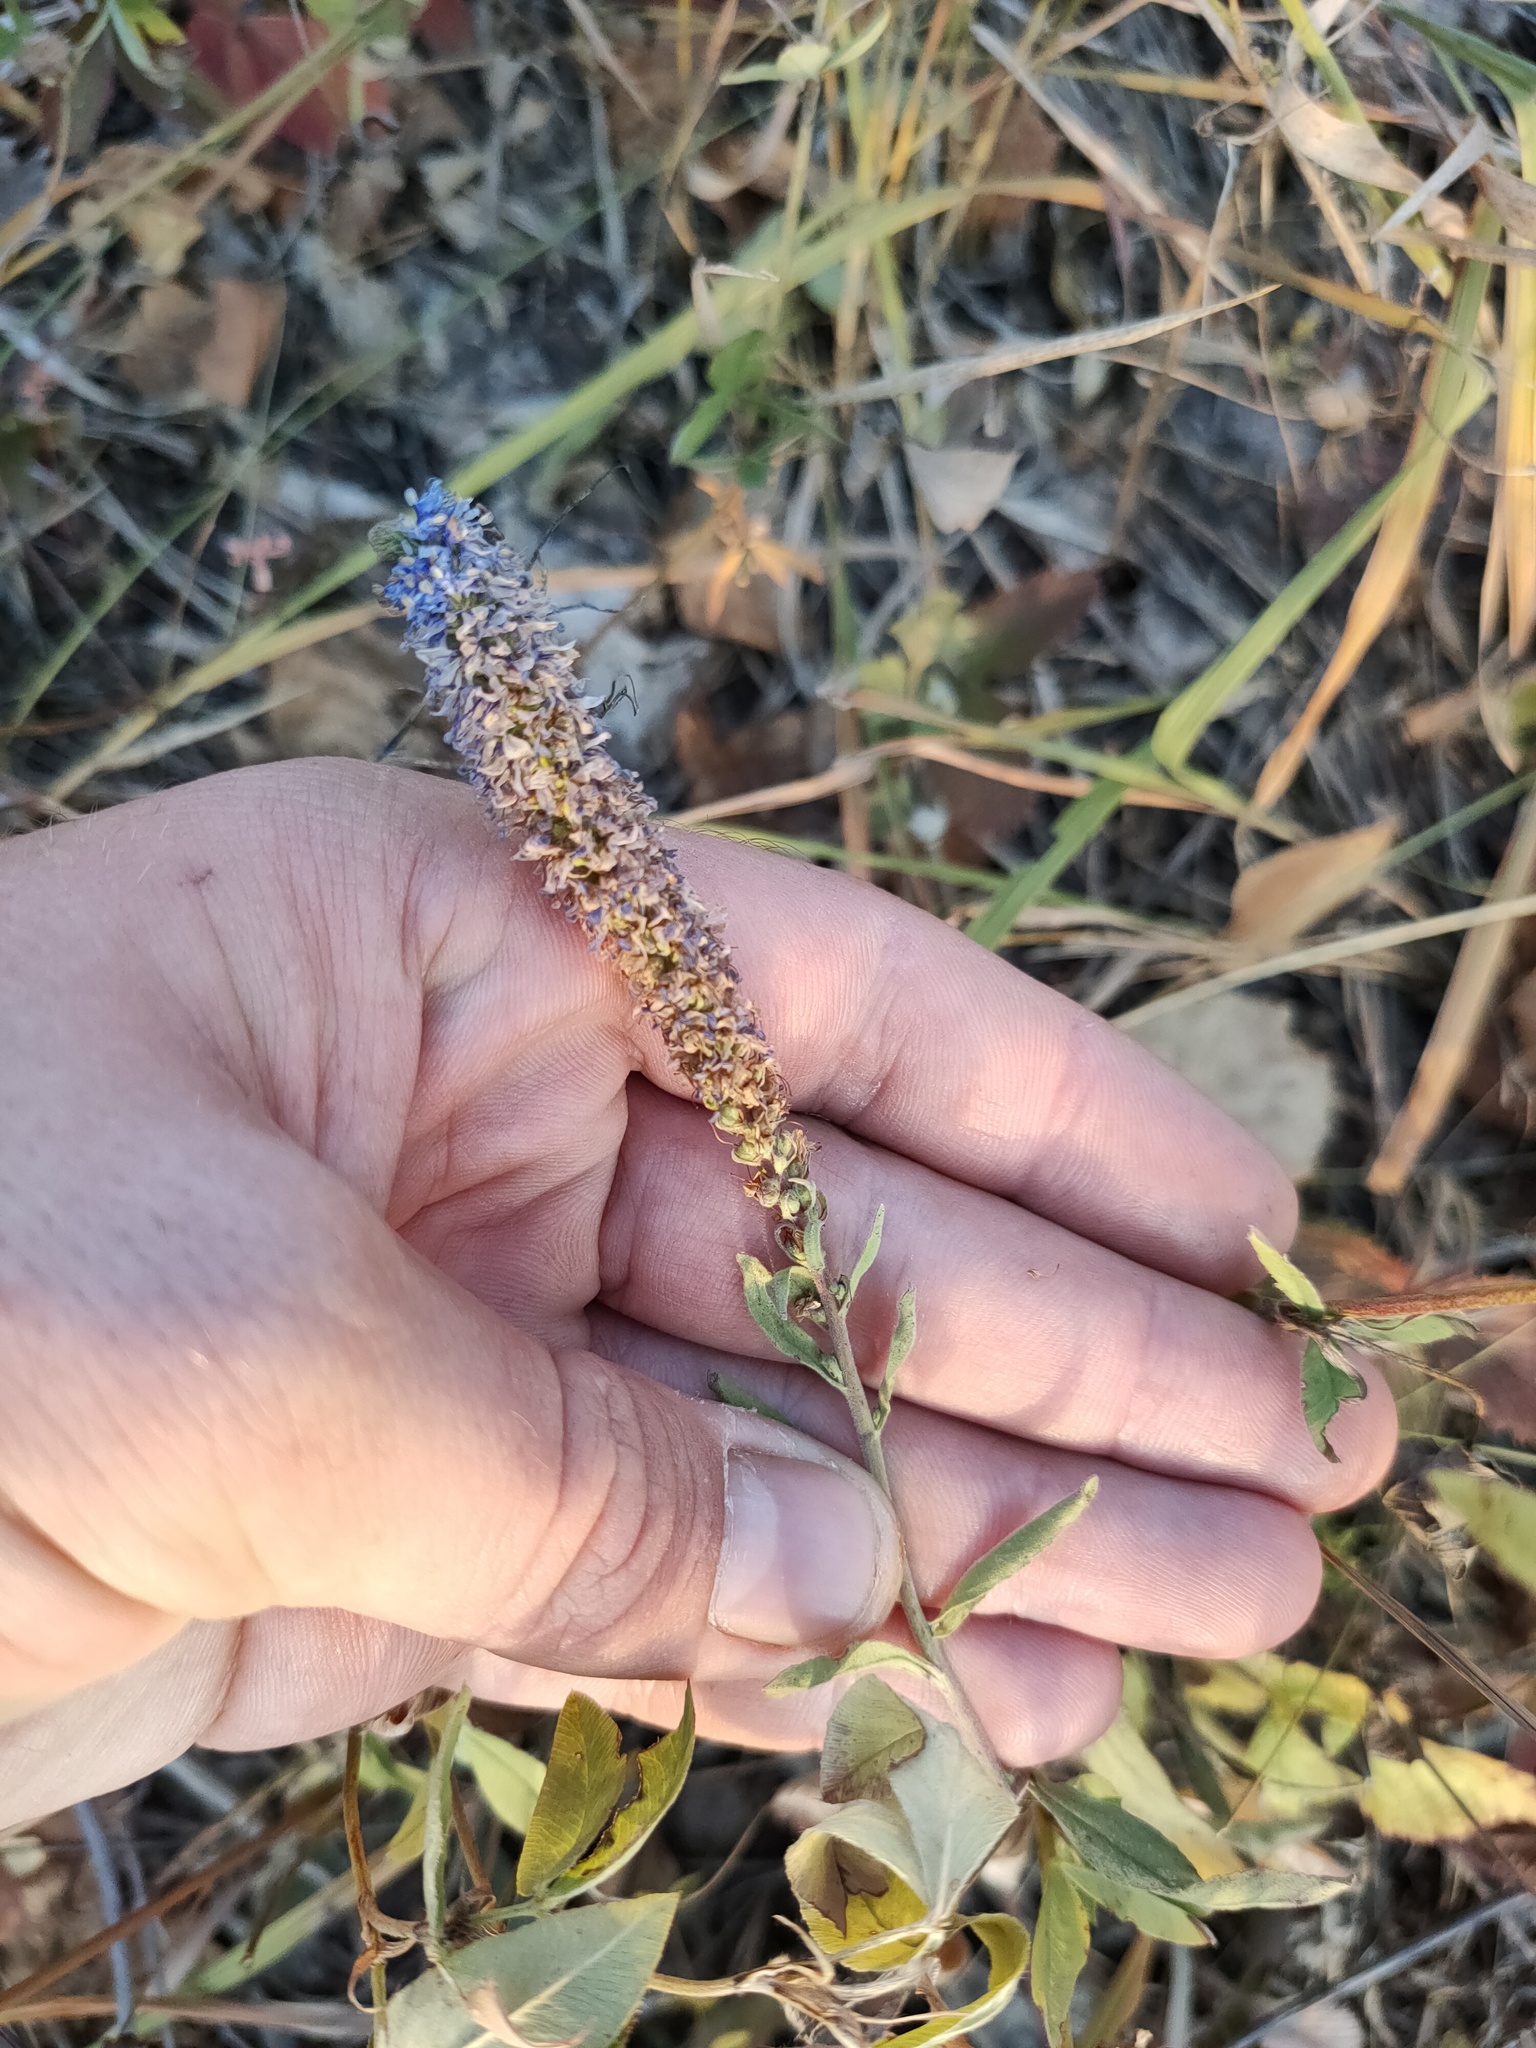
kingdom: Plantae
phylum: Tracheophyta
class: Magnoliopsida
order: Lamiales
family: Plantaginaceae
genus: Veronica
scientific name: Veronica spicata
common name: Spiked speedwell
